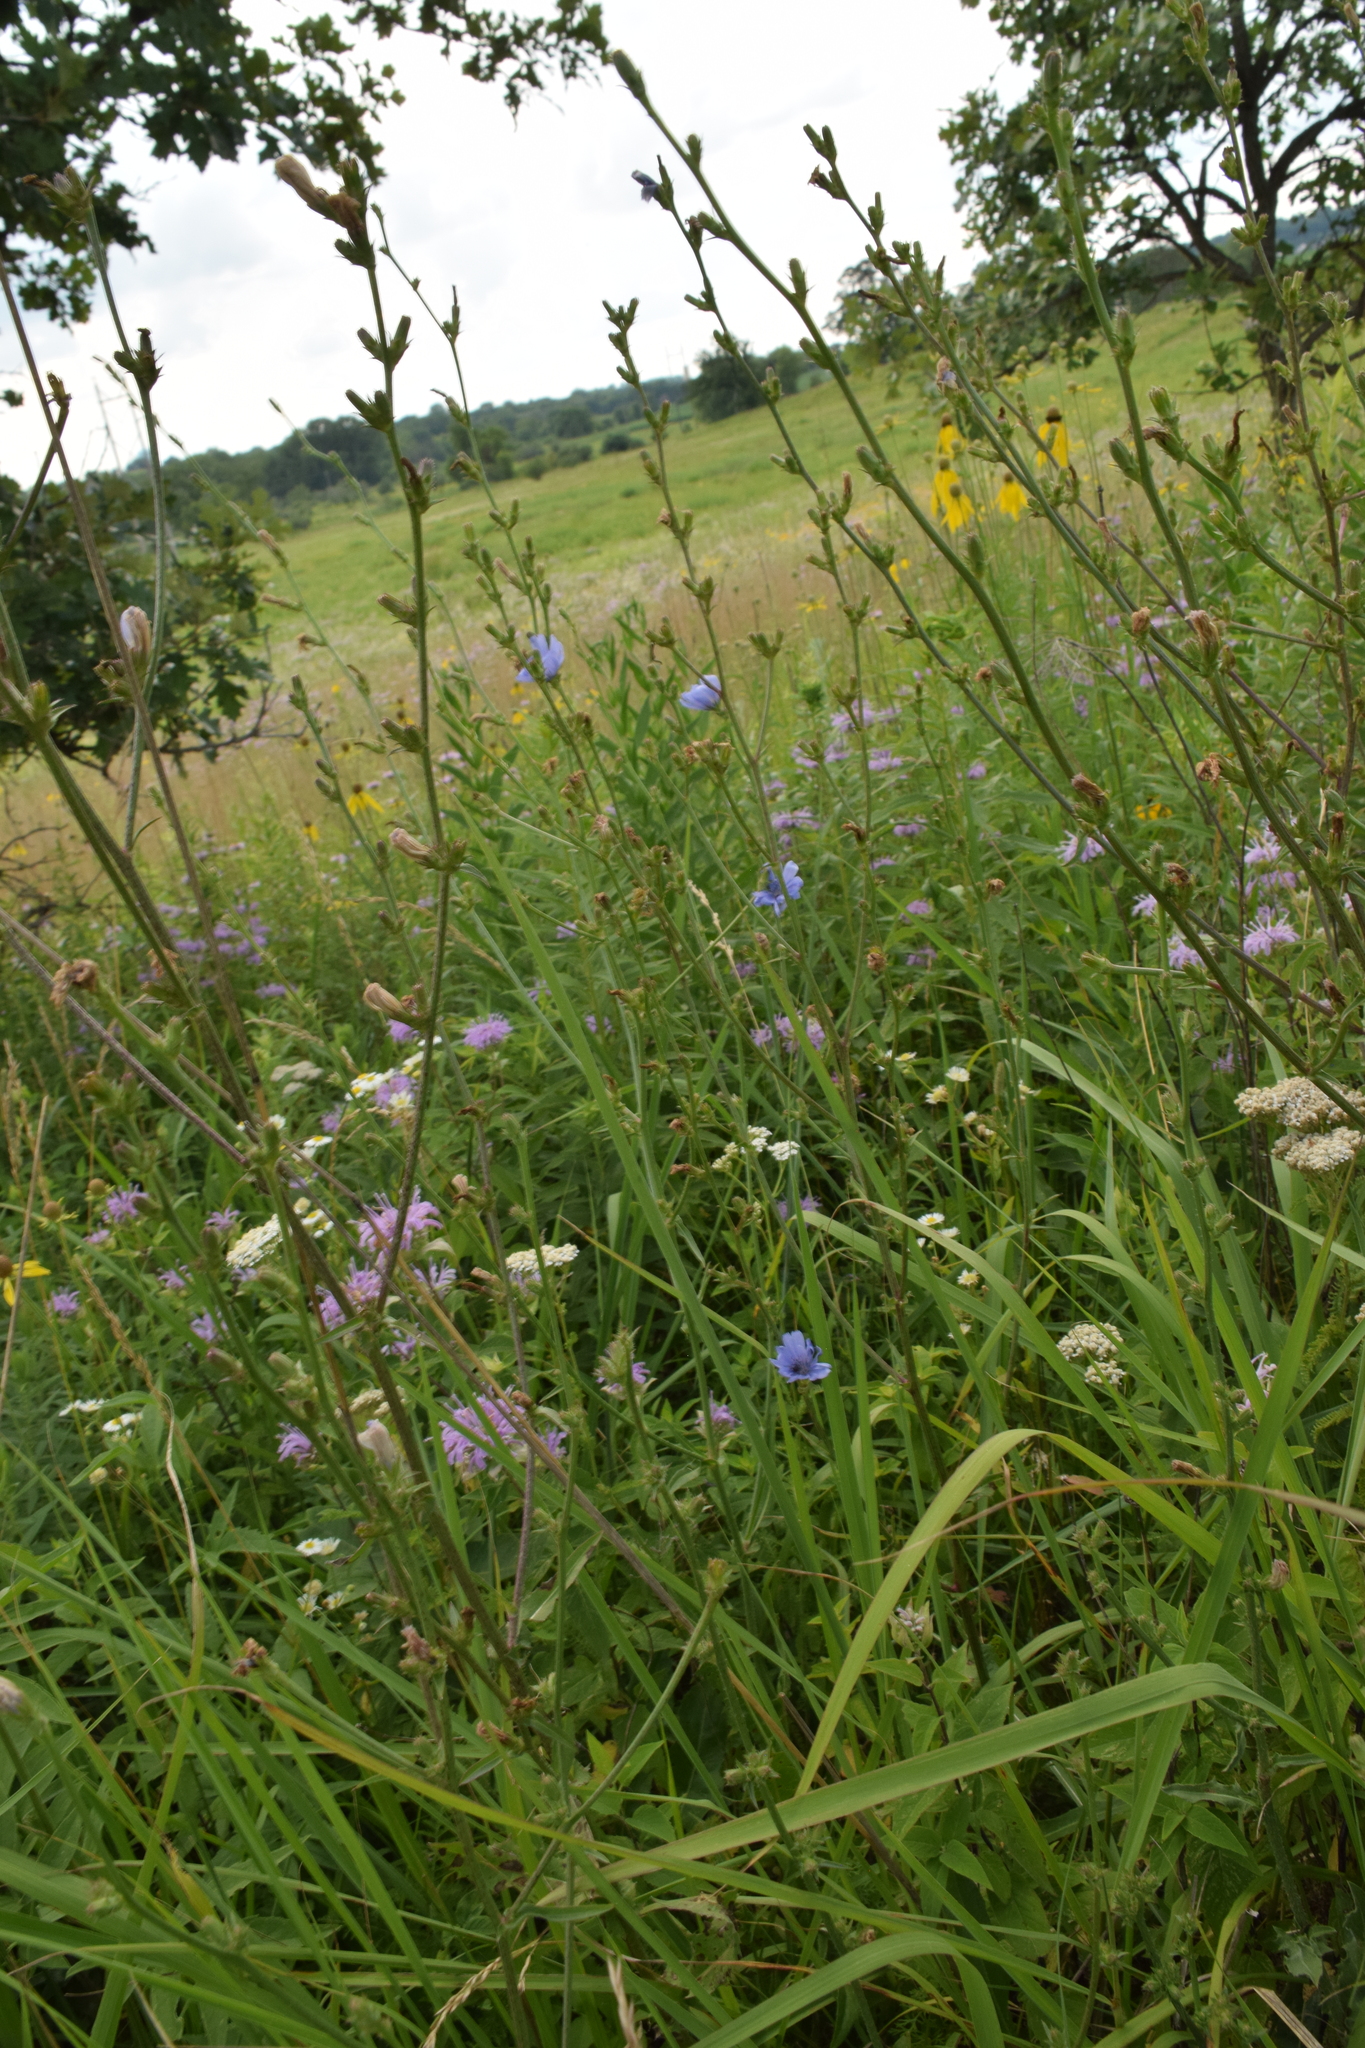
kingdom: Plantae
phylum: Tracheophyta
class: Magnoliopsida
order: Asterales
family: Asteraceae
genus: Cichorium
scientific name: Cichorium intybus
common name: Chicory
